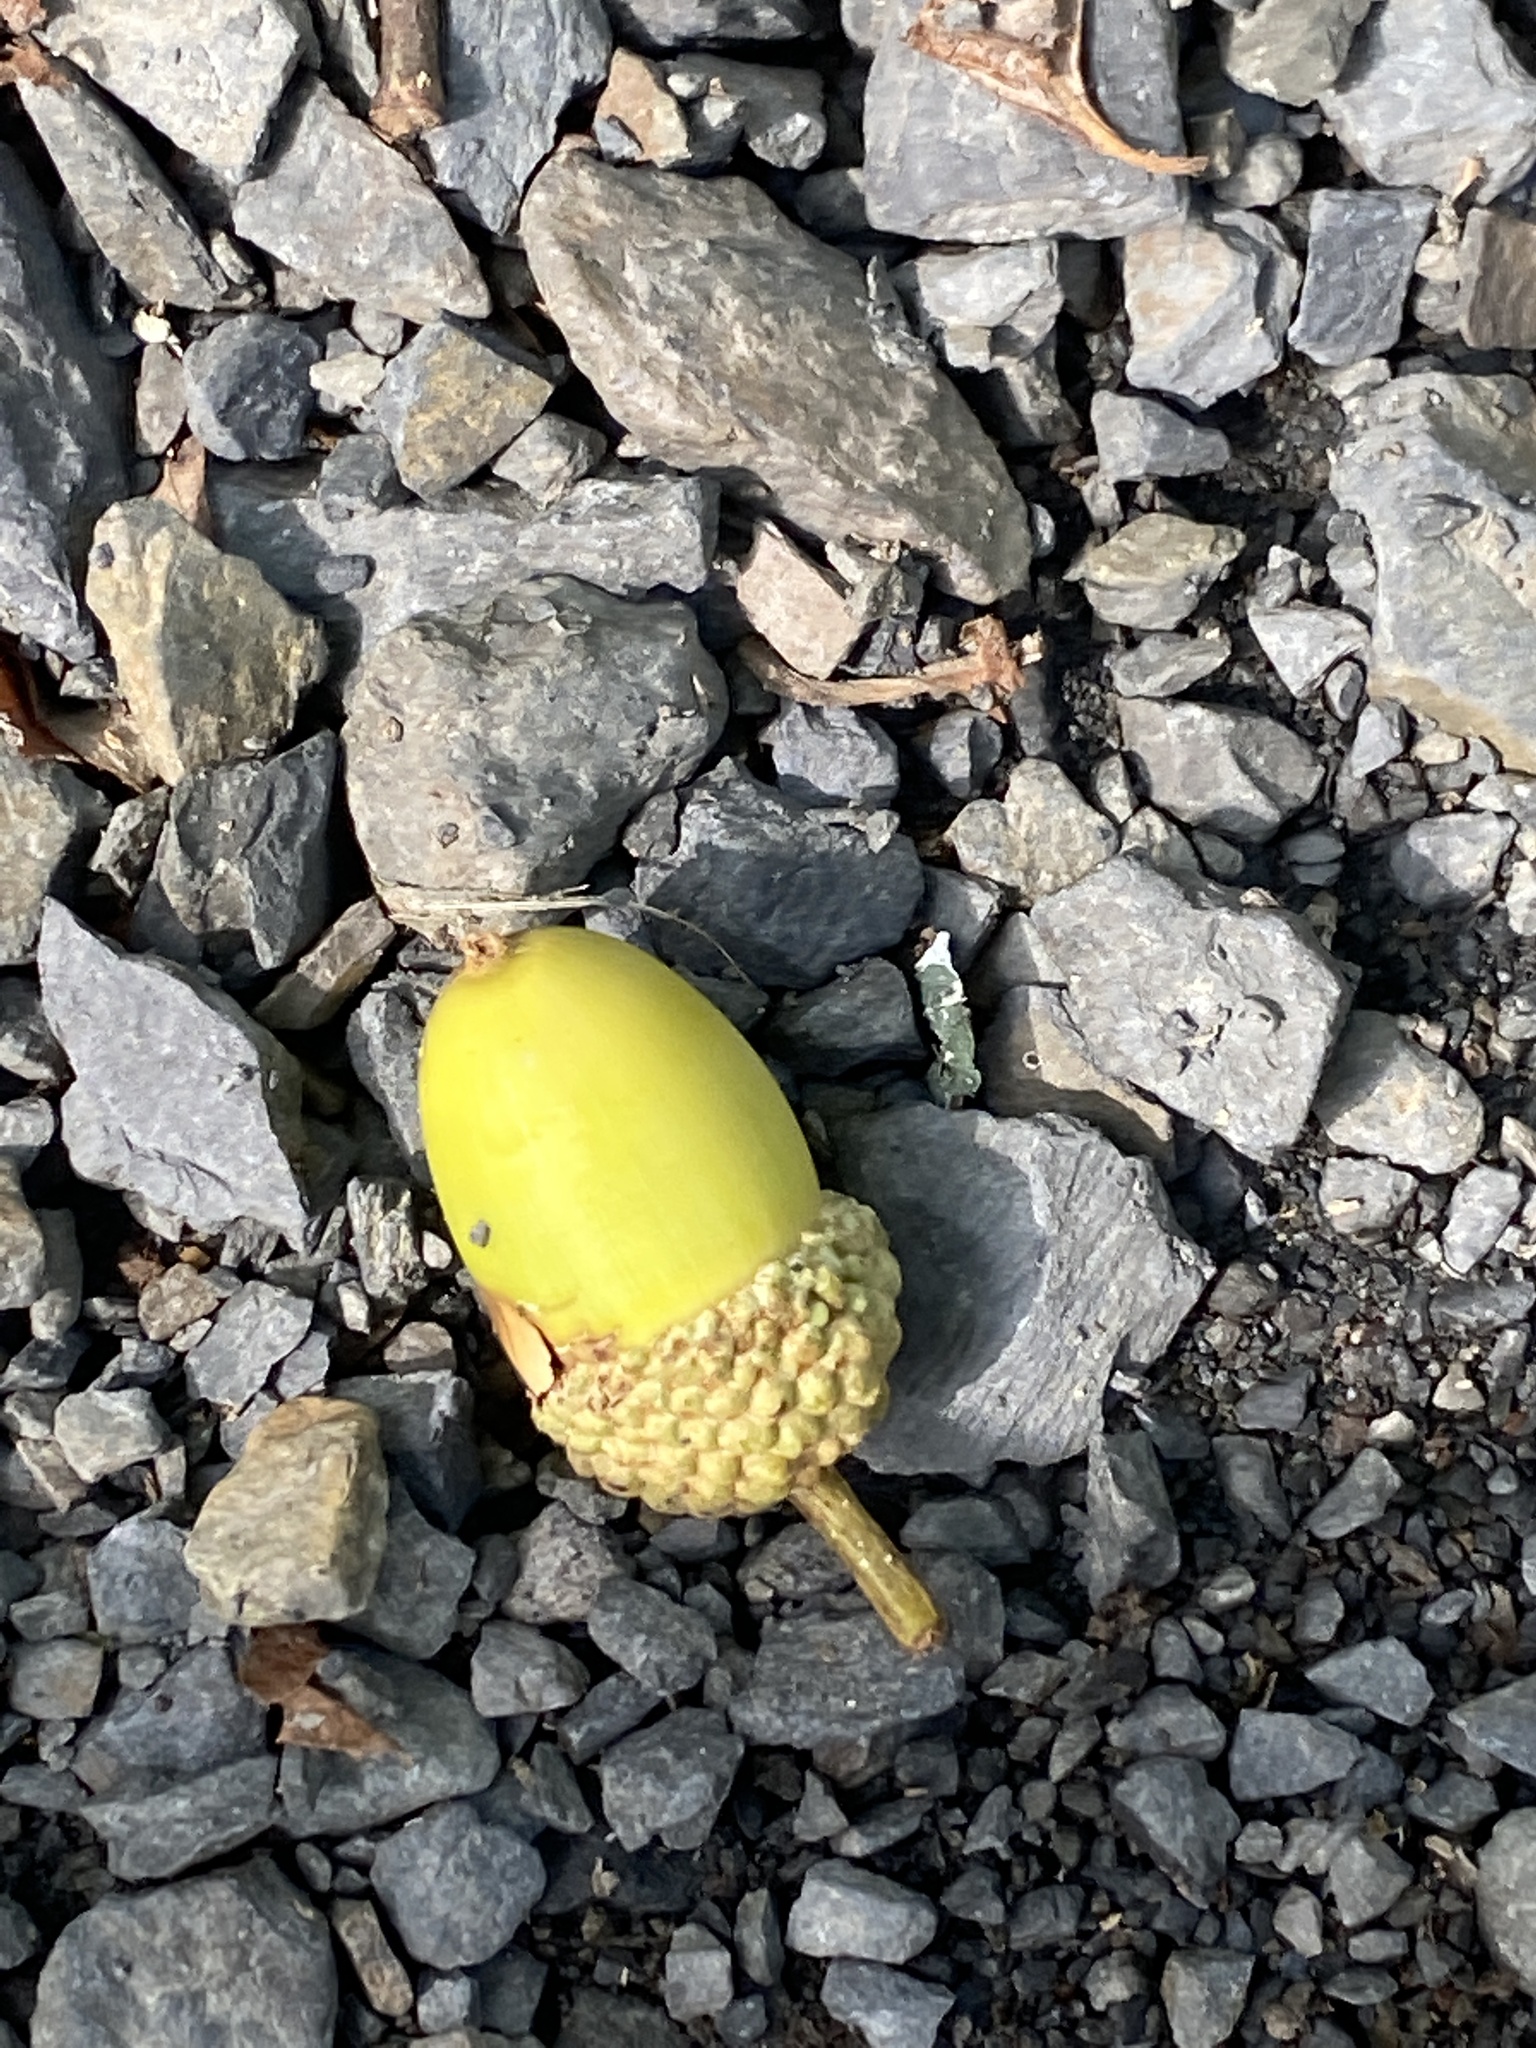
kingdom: Plantae
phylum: Tracheophyta
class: Magnoliopsida
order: Fagales
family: Fagaceae
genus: Quercus
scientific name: Quercus alba
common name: White oak
